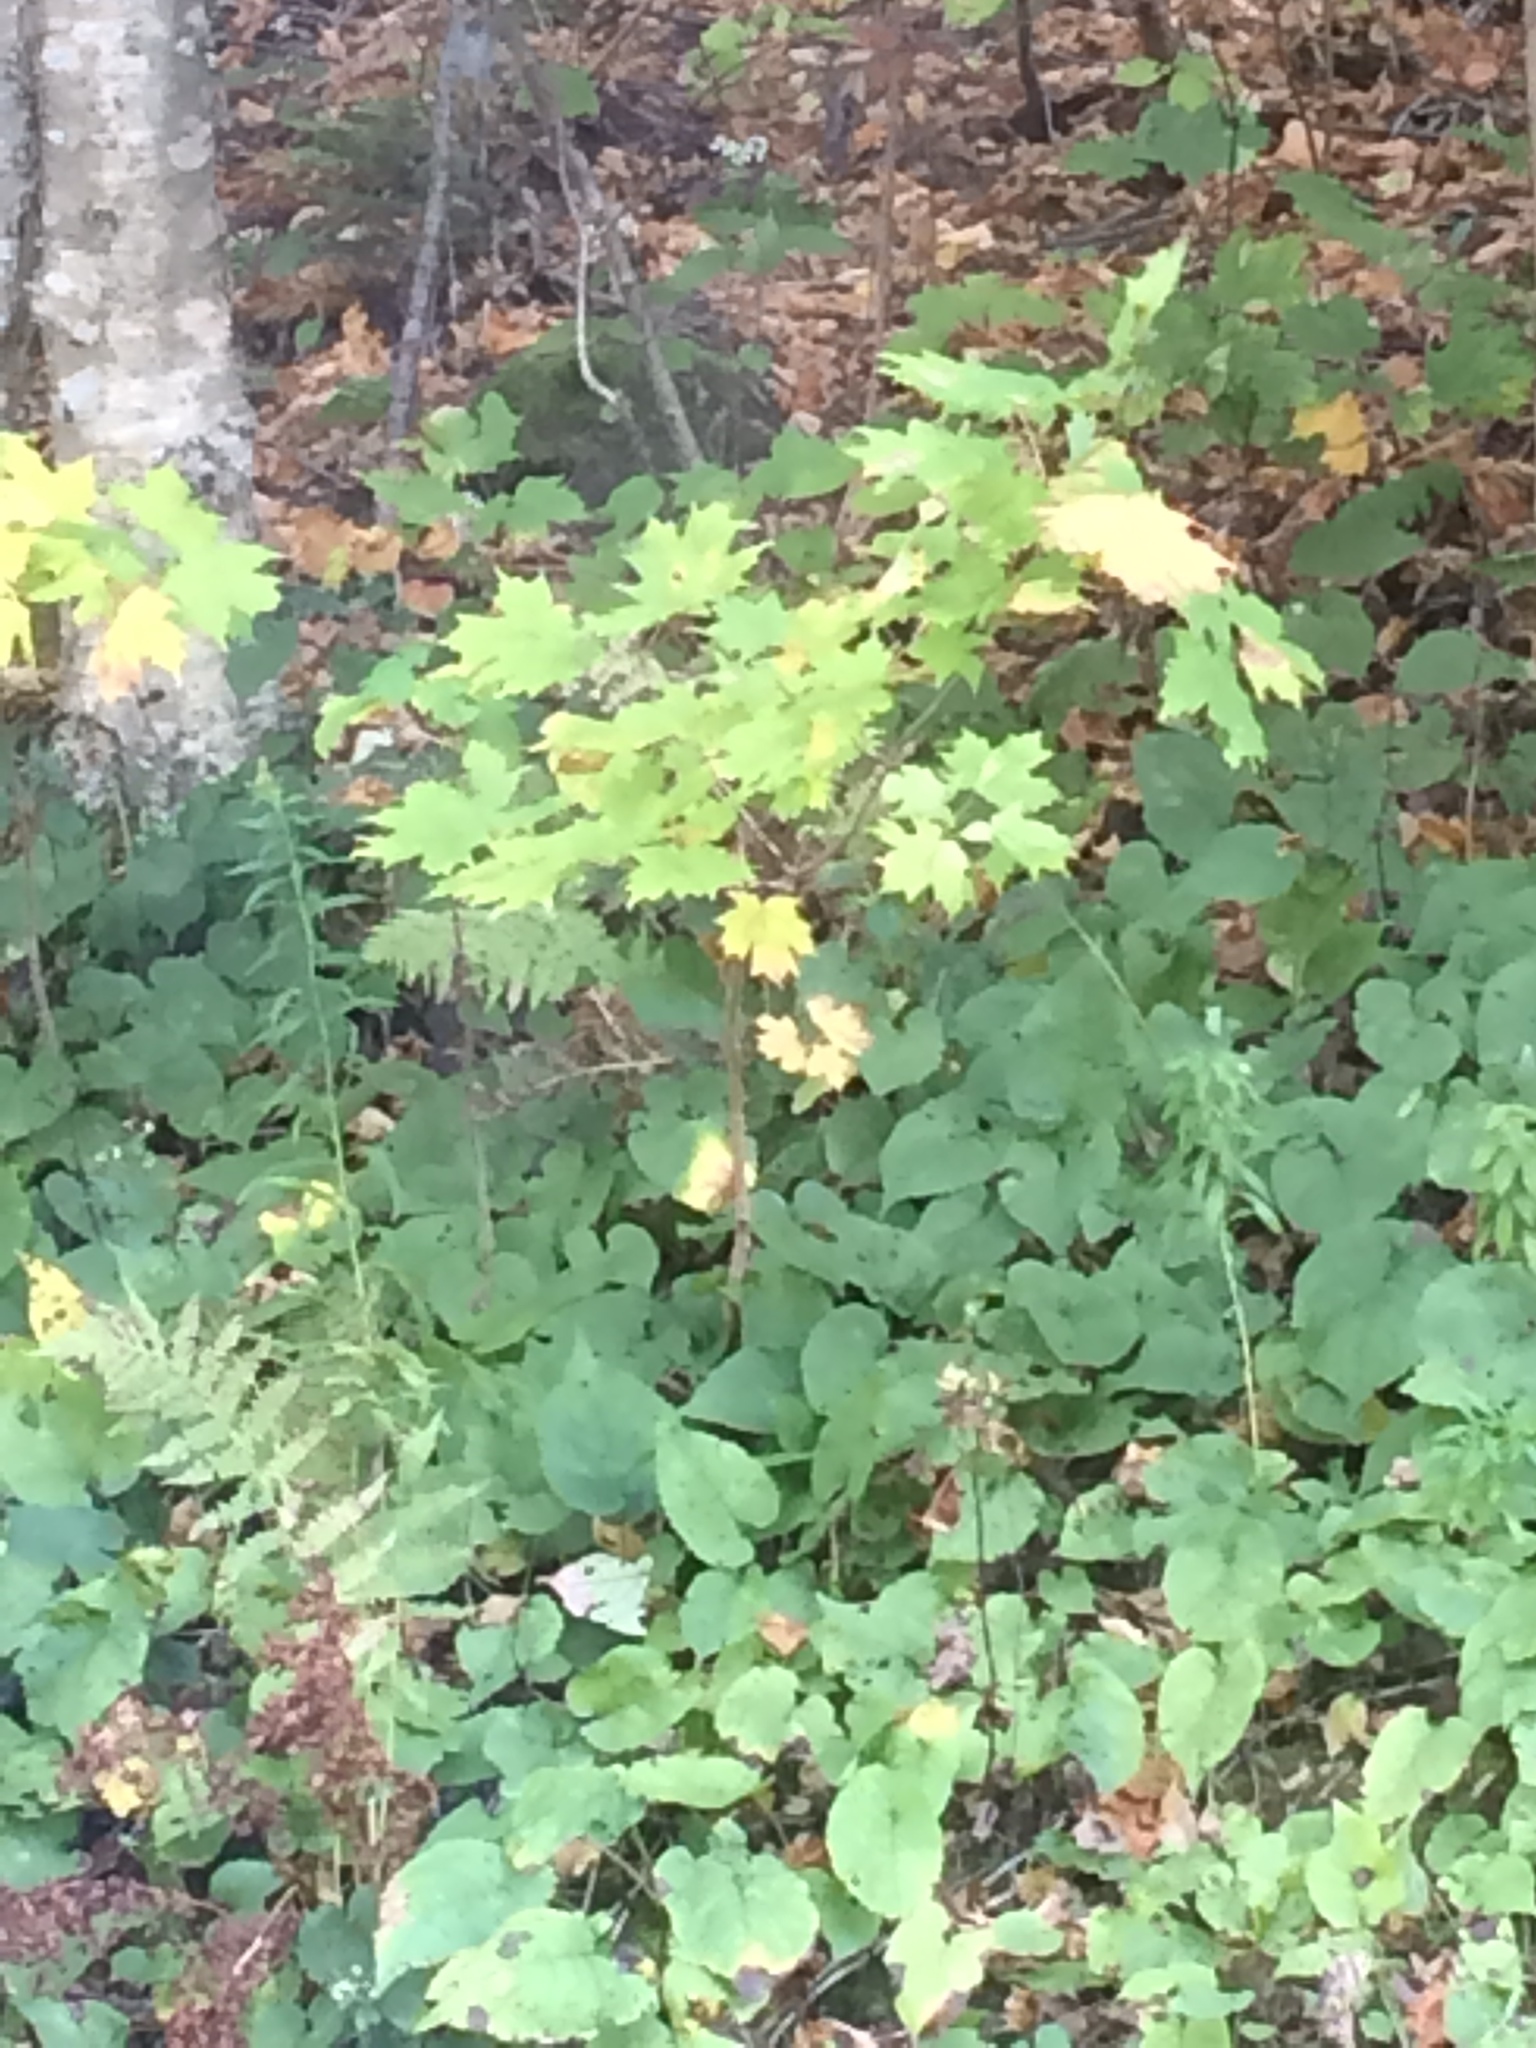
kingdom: Plantae
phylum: Tracheophyta
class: Magnoliopsida
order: Sapindales
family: Sapindaceae
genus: Acer
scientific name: Acer saccharum
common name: Sugar maple
